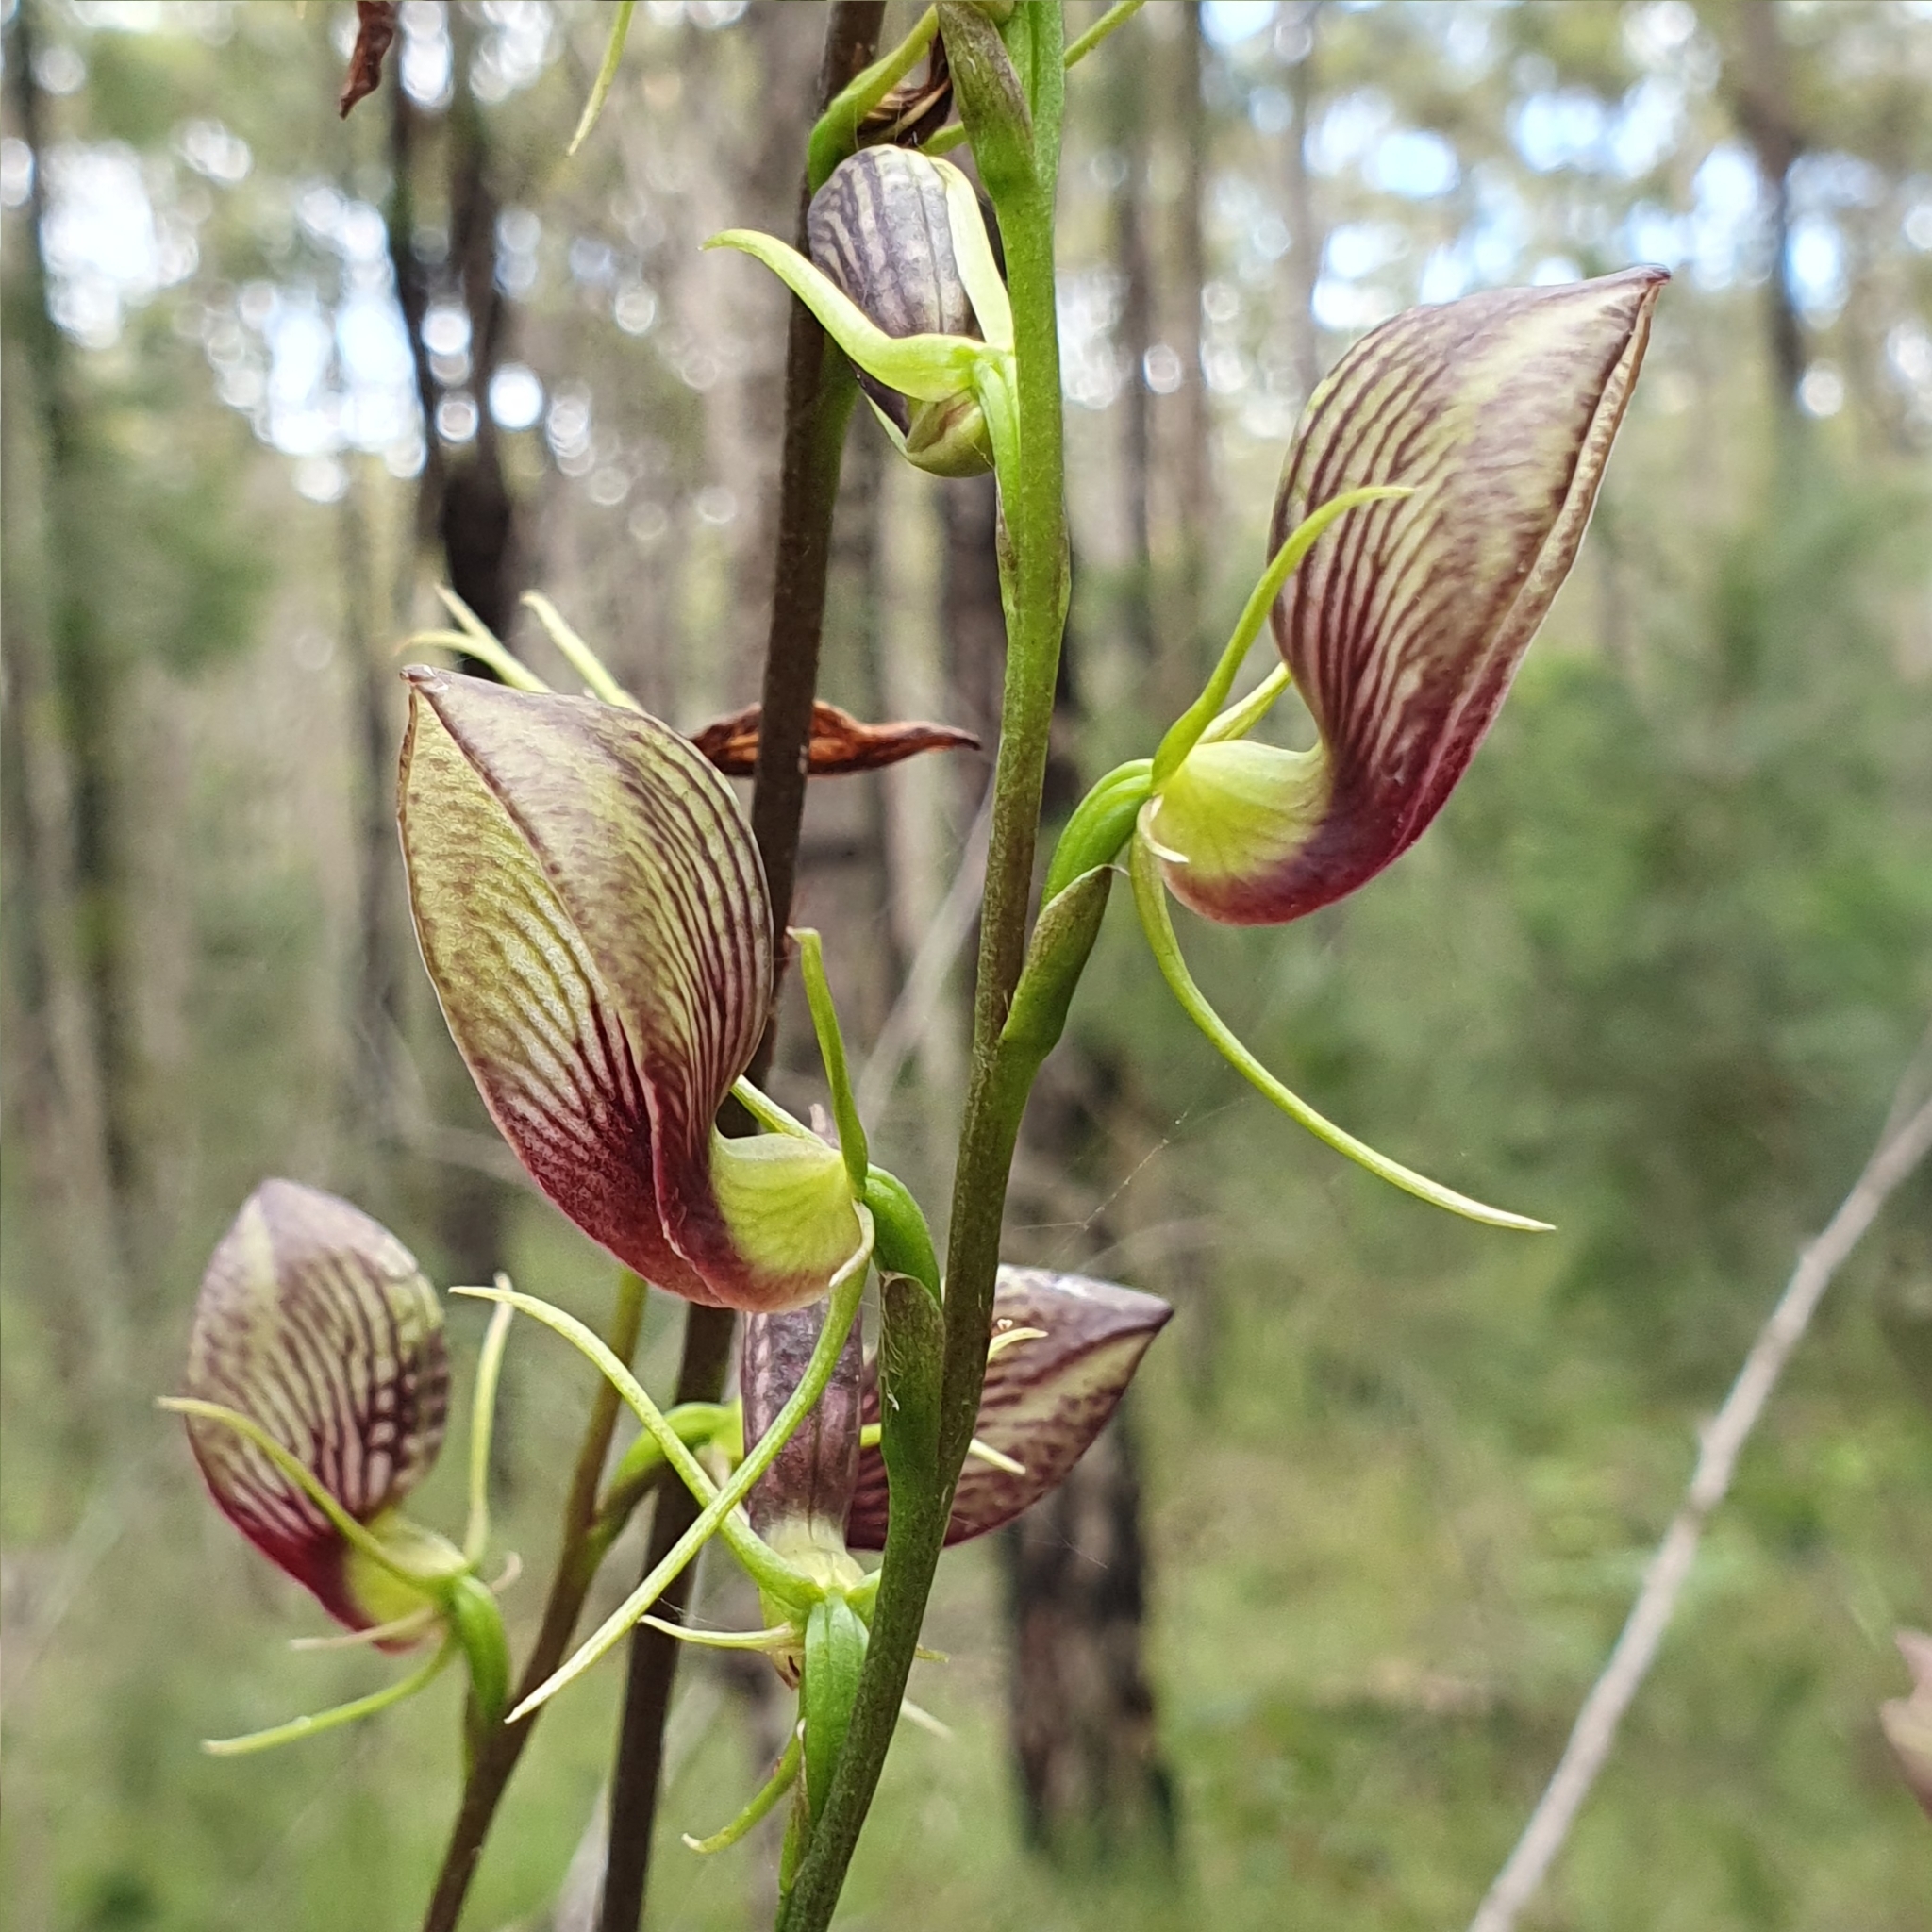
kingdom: Plantae
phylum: Tracheophyta
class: Liliopsida
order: Asparagales
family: Orchidaceae
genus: Cryptostylis
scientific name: Cryptostylis erecta
